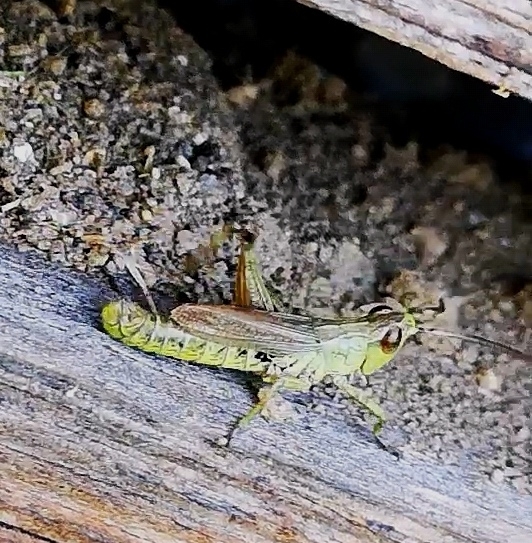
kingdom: Animalia
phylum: Arthropoda
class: Insecta
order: Orthoptera
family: Acrididae
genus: Pseudochorthippus
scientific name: Pseudochorthippus parallelus
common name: Meadow grasshopper
